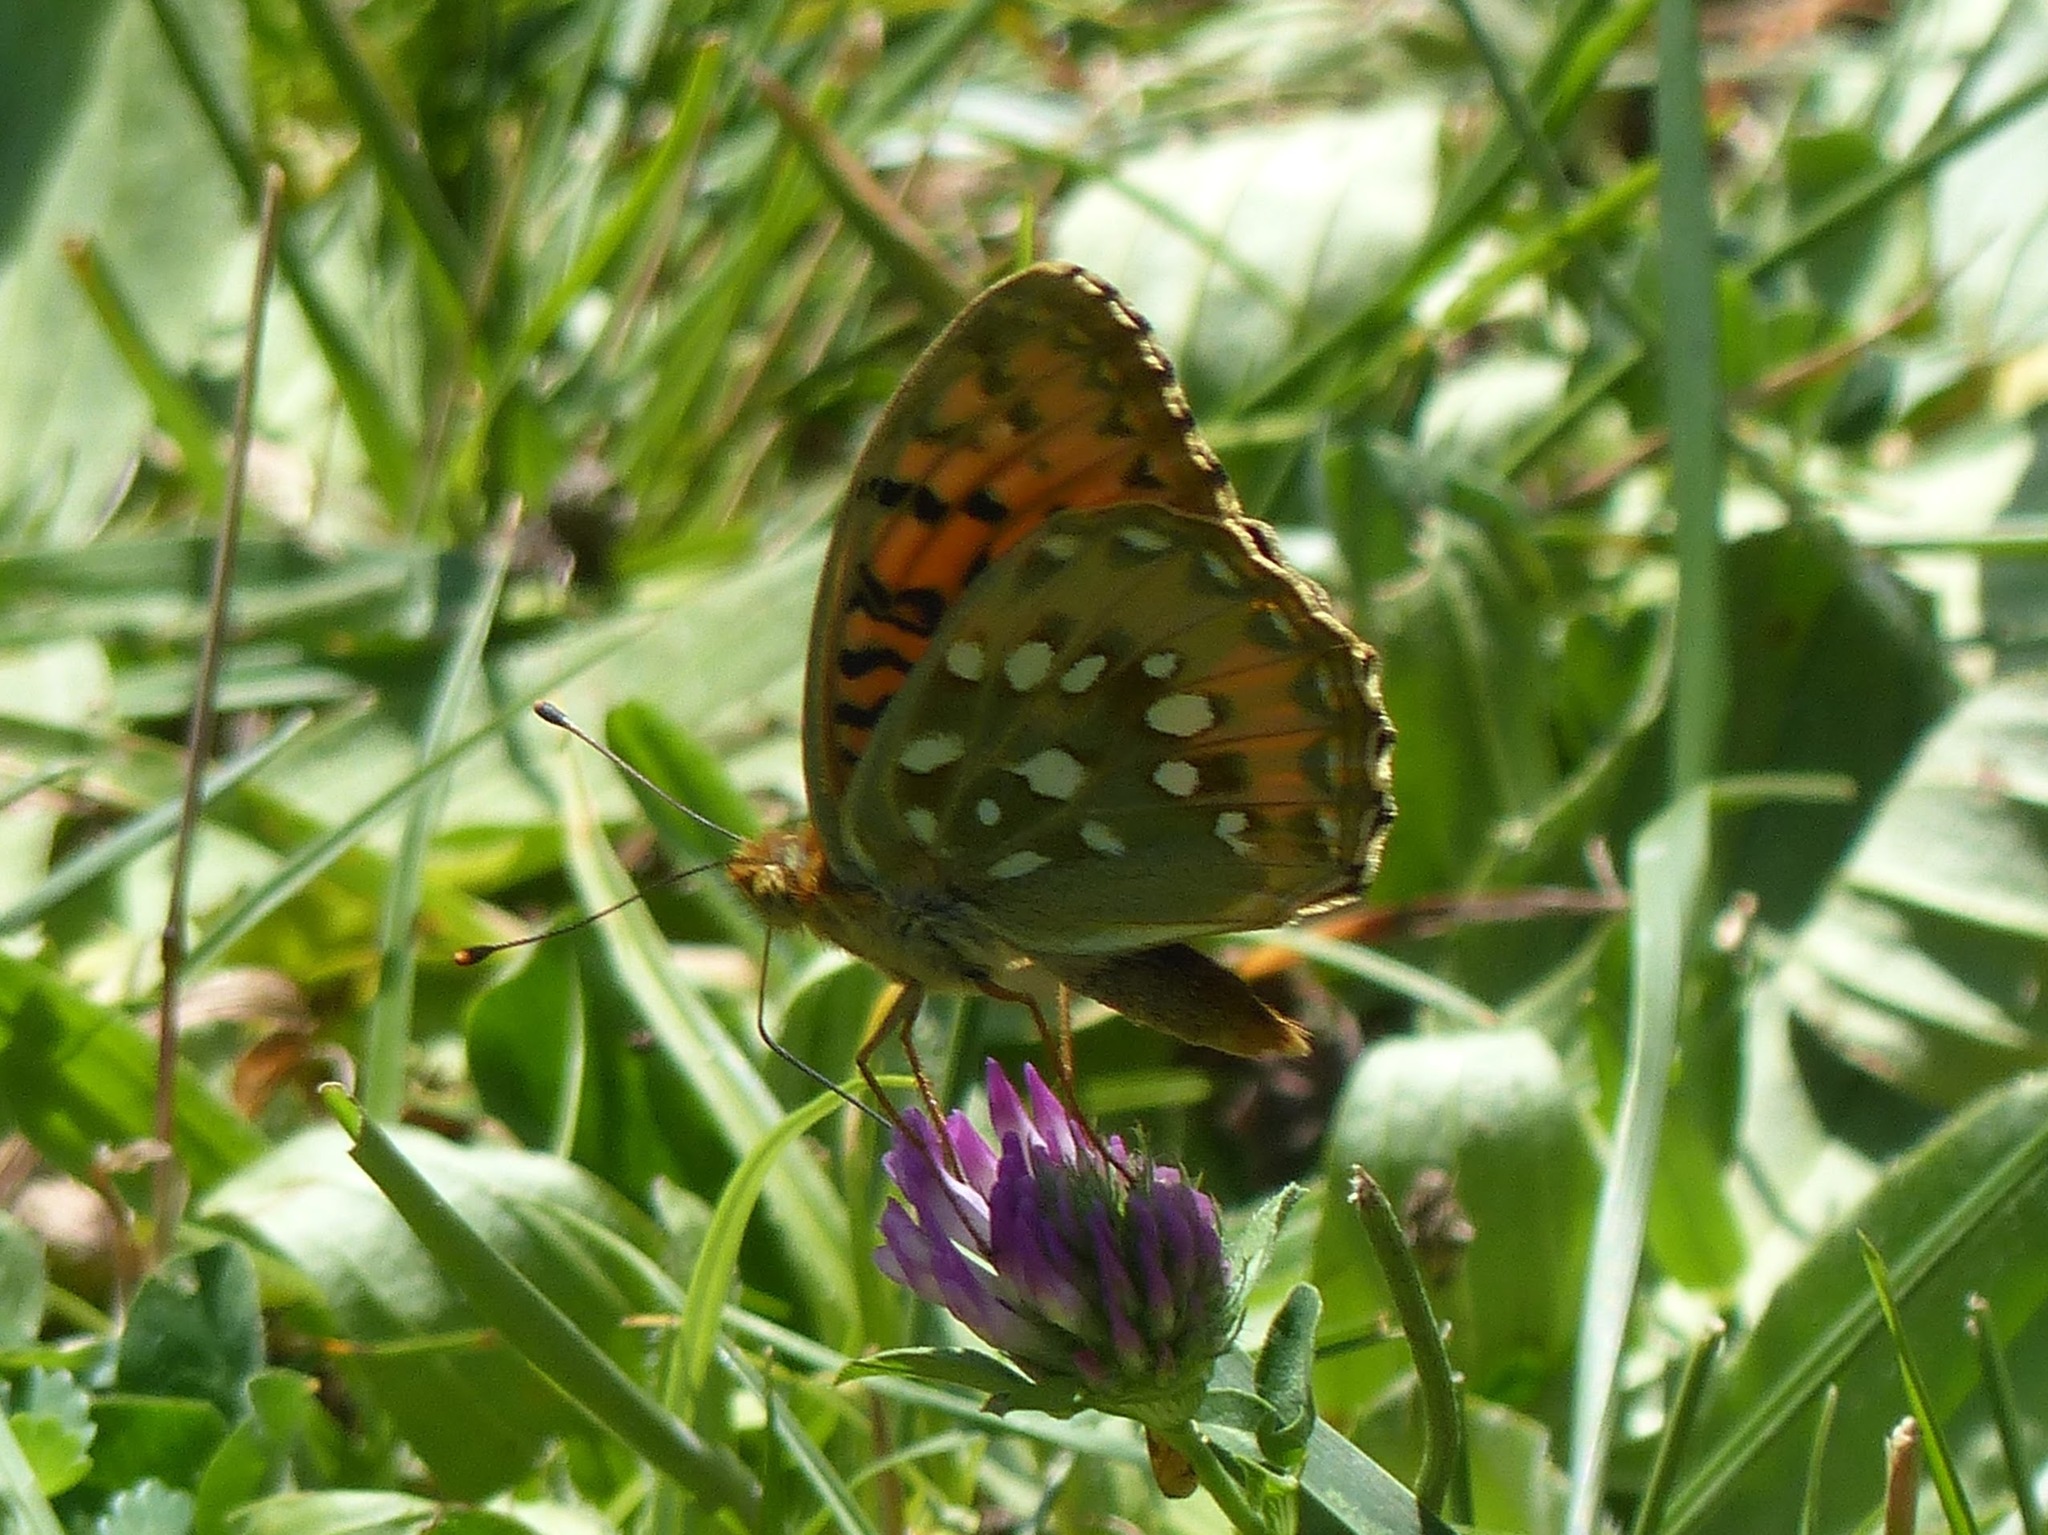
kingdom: Animalia
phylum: Arthropoda
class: Insecta
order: Lepidoptera
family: Nymphalidae
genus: Speyeria
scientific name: Speyeria aglaja
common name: Dark green fritillary
